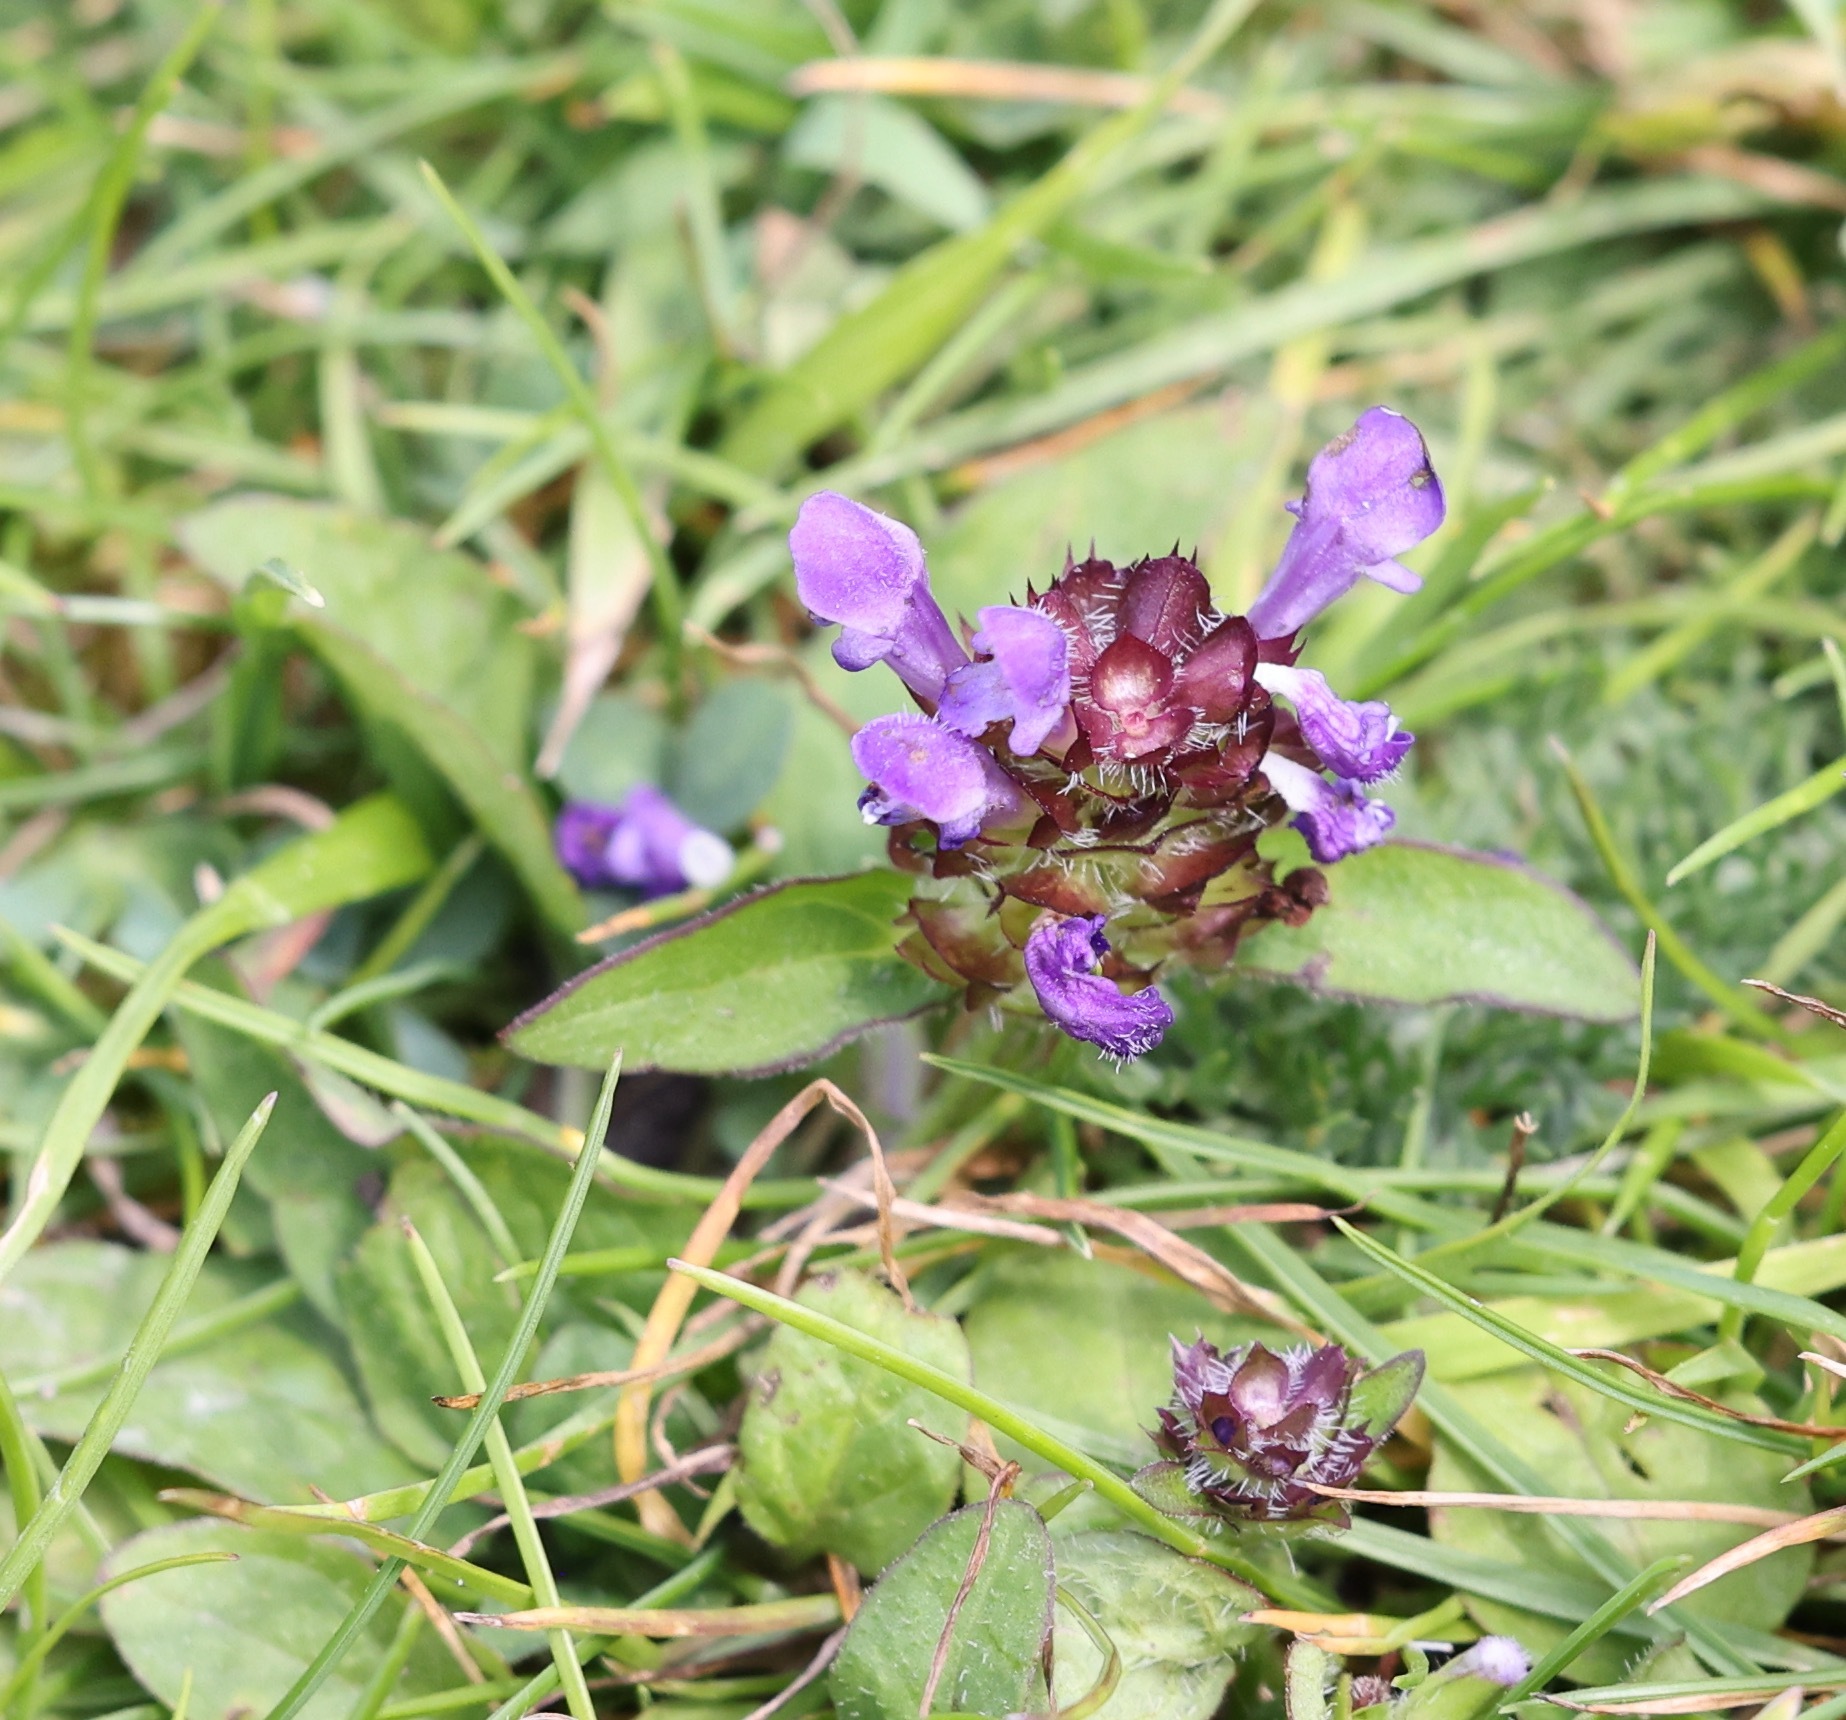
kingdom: Plantae
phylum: Tracheophyta
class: Magnoliopsida
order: Lamiales
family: Lamiaceae
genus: Prunella
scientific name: Prunella vulgaris
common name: Heal-all
